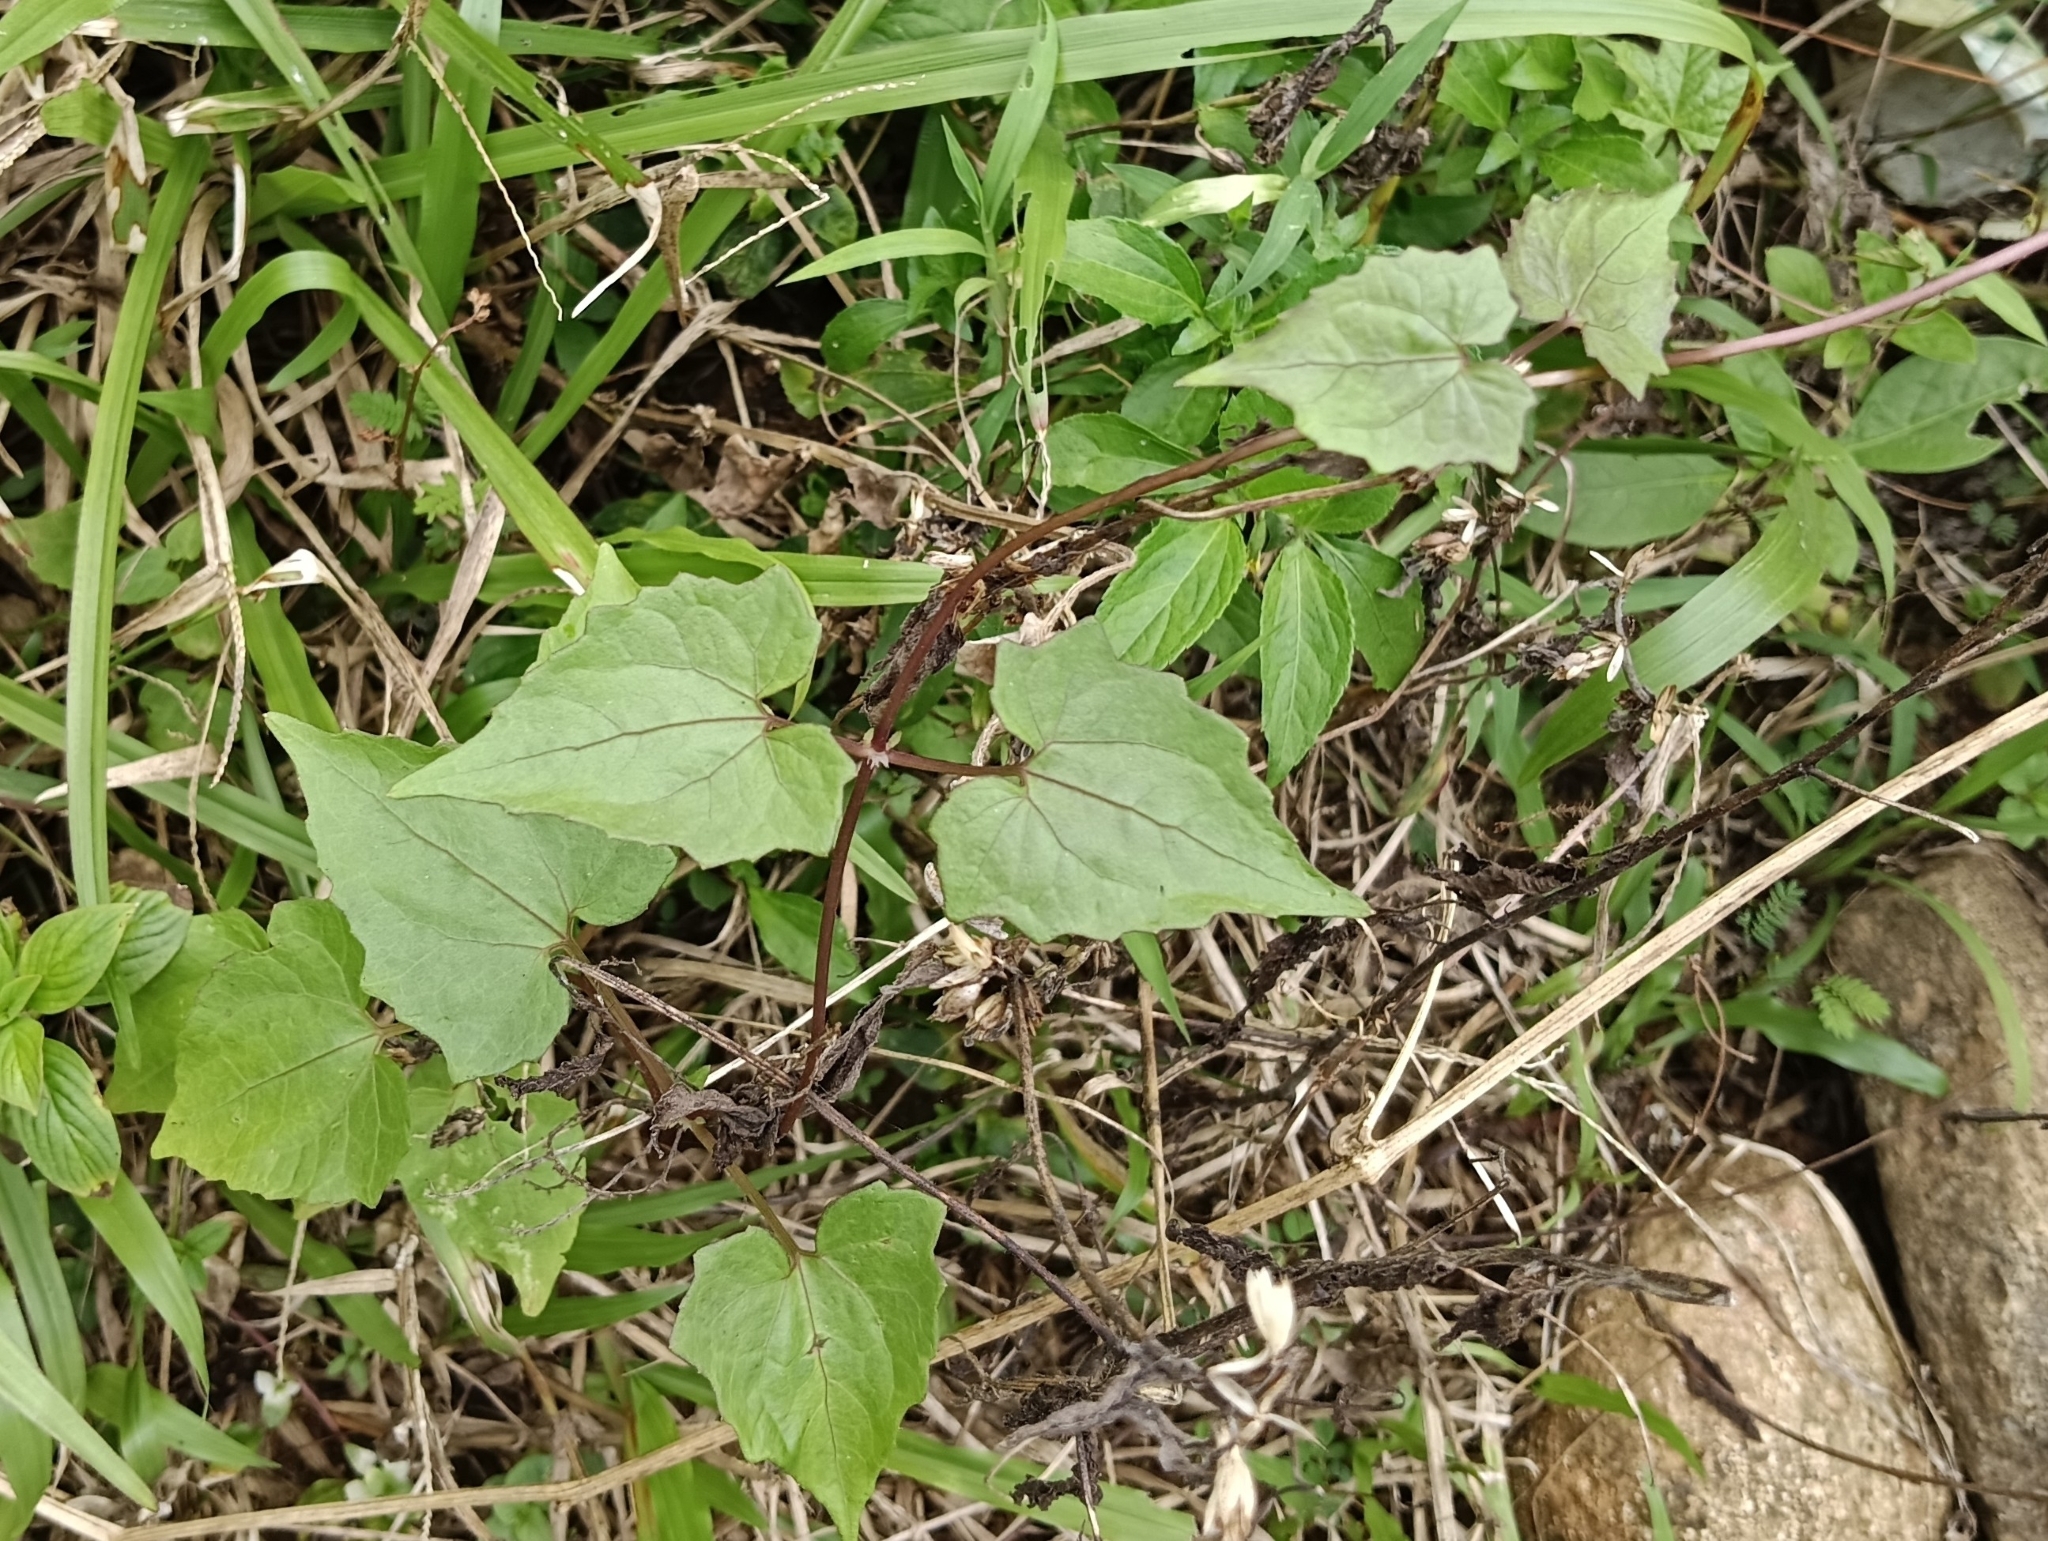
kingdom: Plantae
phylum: Tracheophyta
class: Magnoliopsida
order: Asterales
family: Asteraceae
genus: Mikania
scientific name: Mikania micrantha
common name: Mile-a-minute
